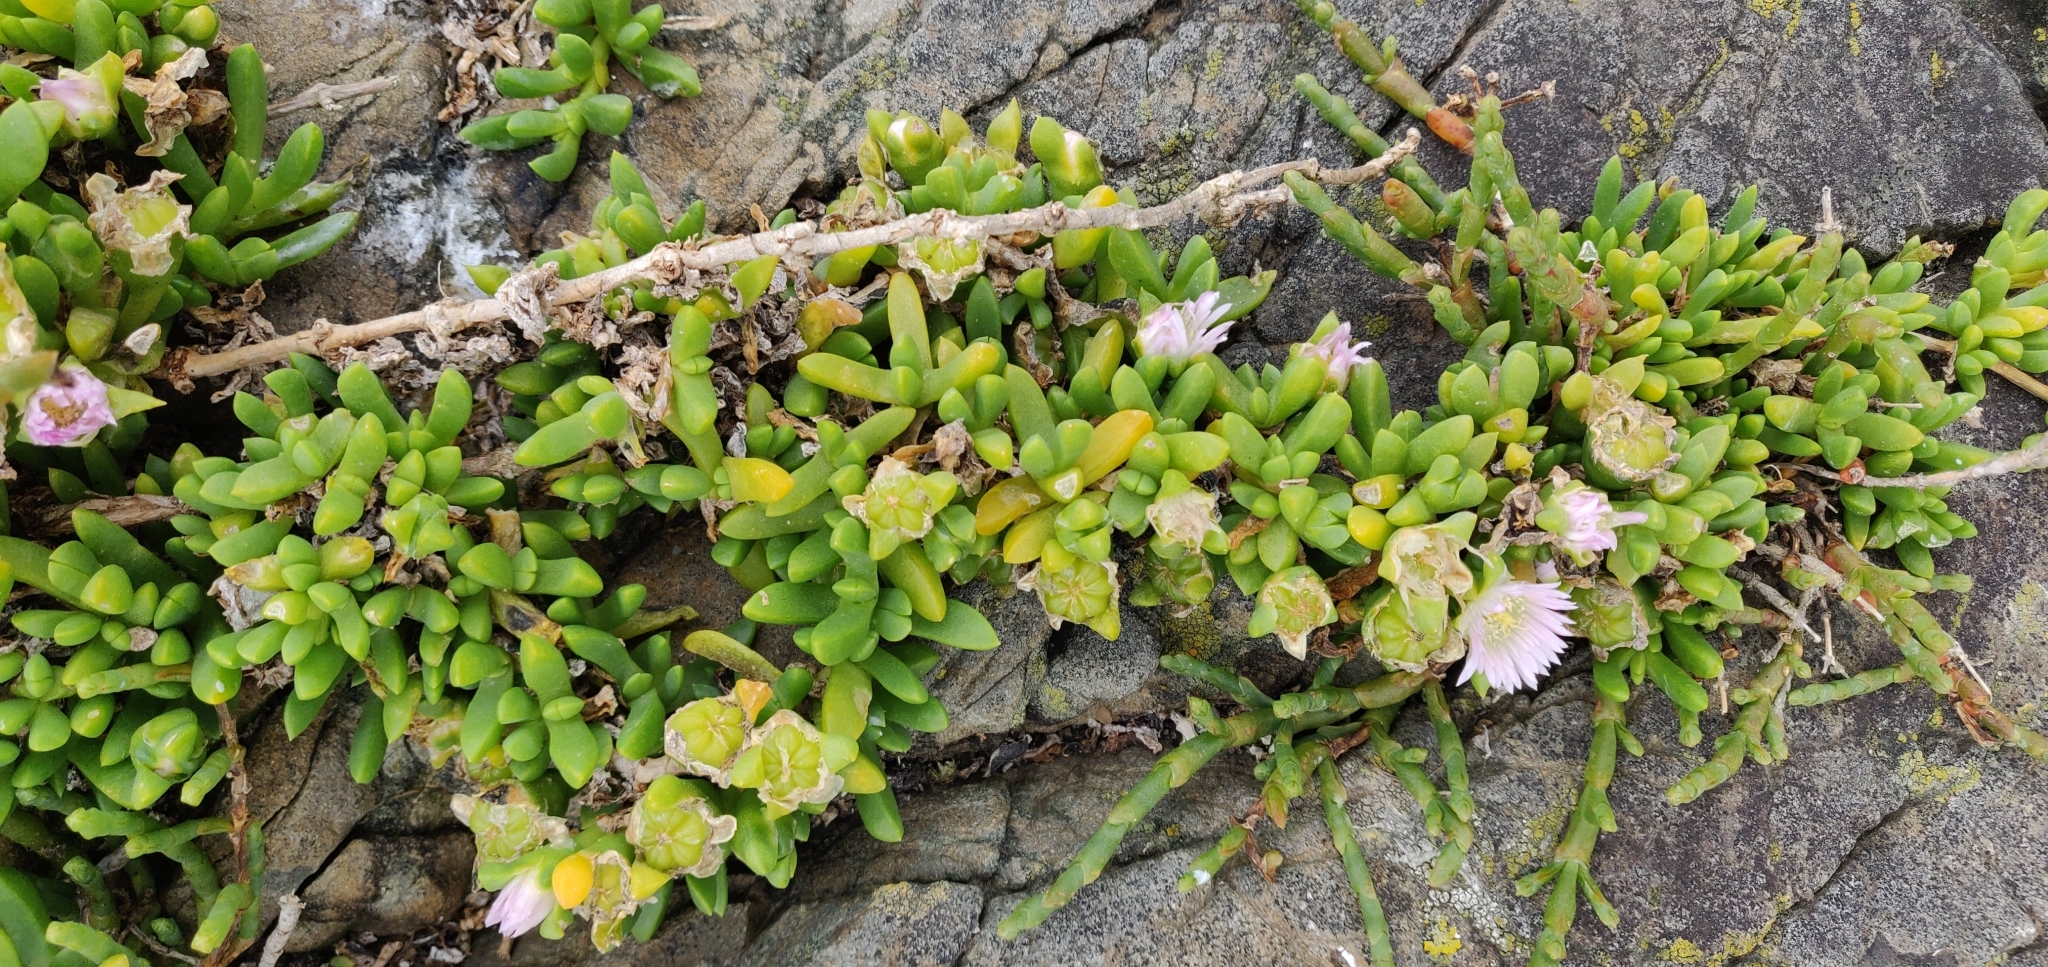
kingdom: Plantae
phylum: Tracheophyta
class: Magnoliopsida
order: Caryophyllales
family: Aizoaceae
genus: Disphyma
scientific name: Disphyma australe
